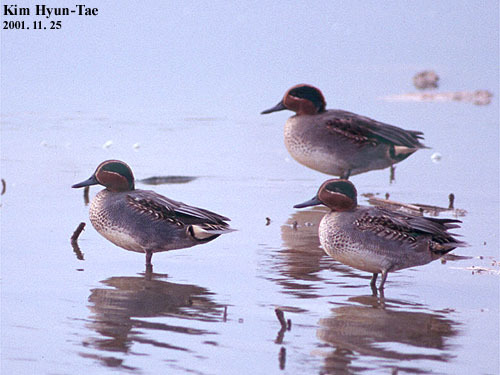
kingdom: Animalia
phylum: Chordata
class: Aves
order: Anseriformes
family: Anatidae
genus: Anas
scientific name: Anas crecca
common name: Eurasian teal
